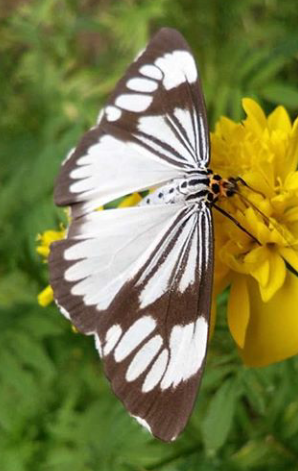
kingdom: Animalia
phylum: Arthropoda
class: Insecta
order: Lepidoptera
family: Erebidae
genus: Nyctemera
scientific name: Nyctemera coleta
